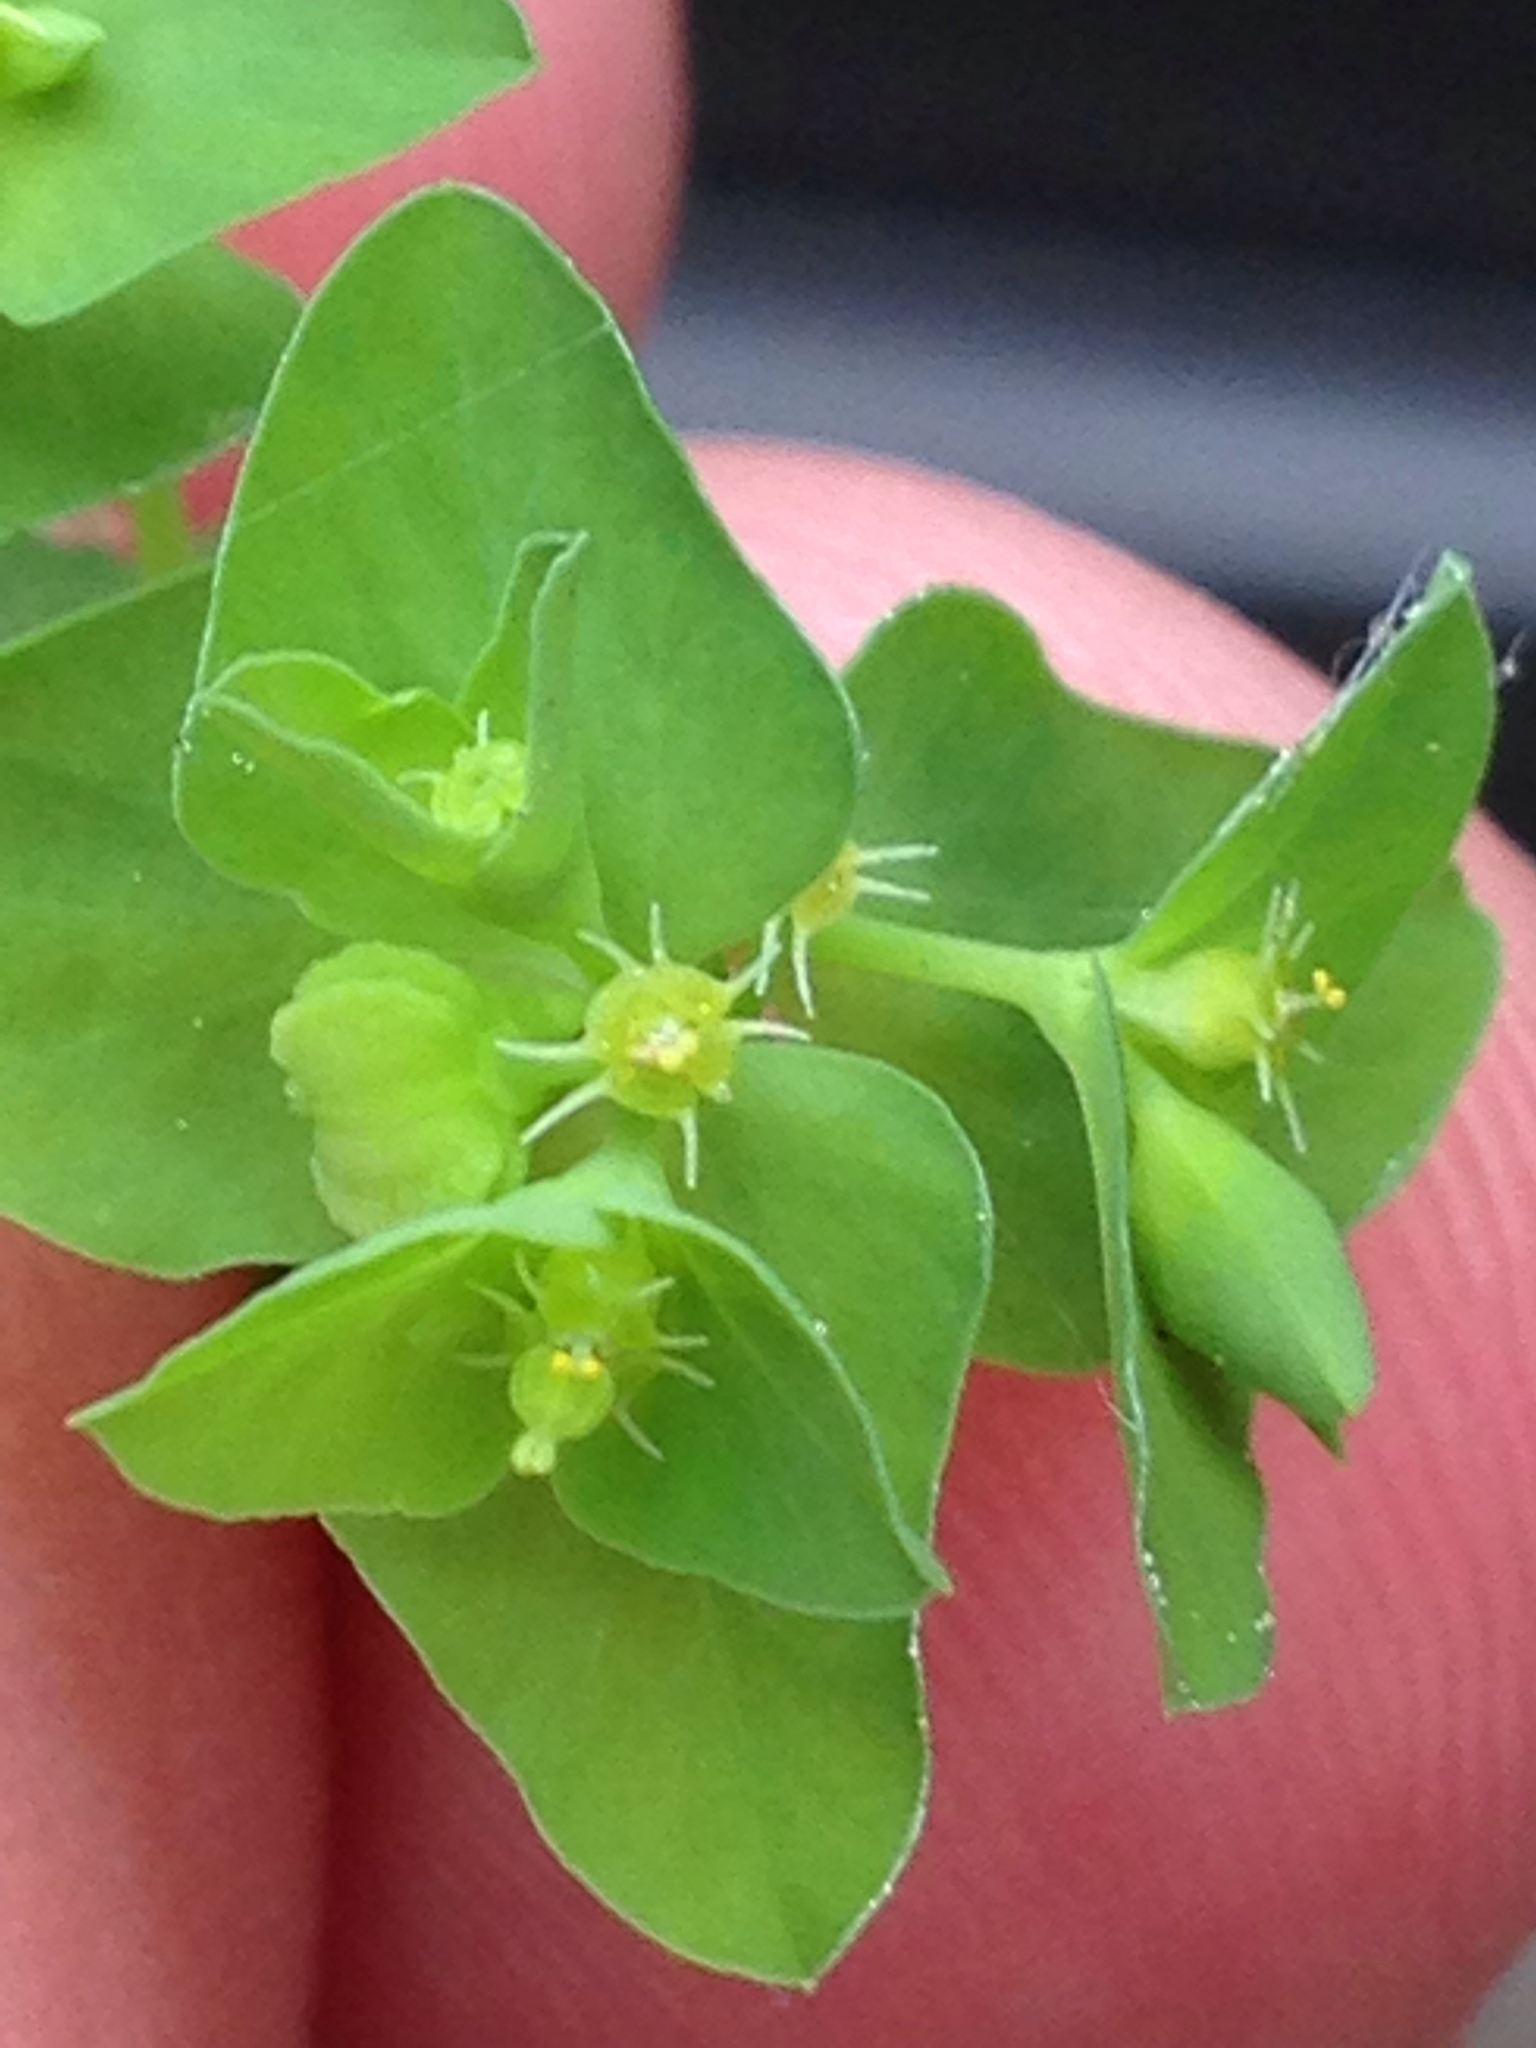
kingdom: Plantae
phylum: Tracheophyta
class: Magnoliopsida
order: Malpighiales
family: Euphorbiaceae
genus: Euphorbia
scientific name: Euphorbia peplus
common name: Petty spurge
